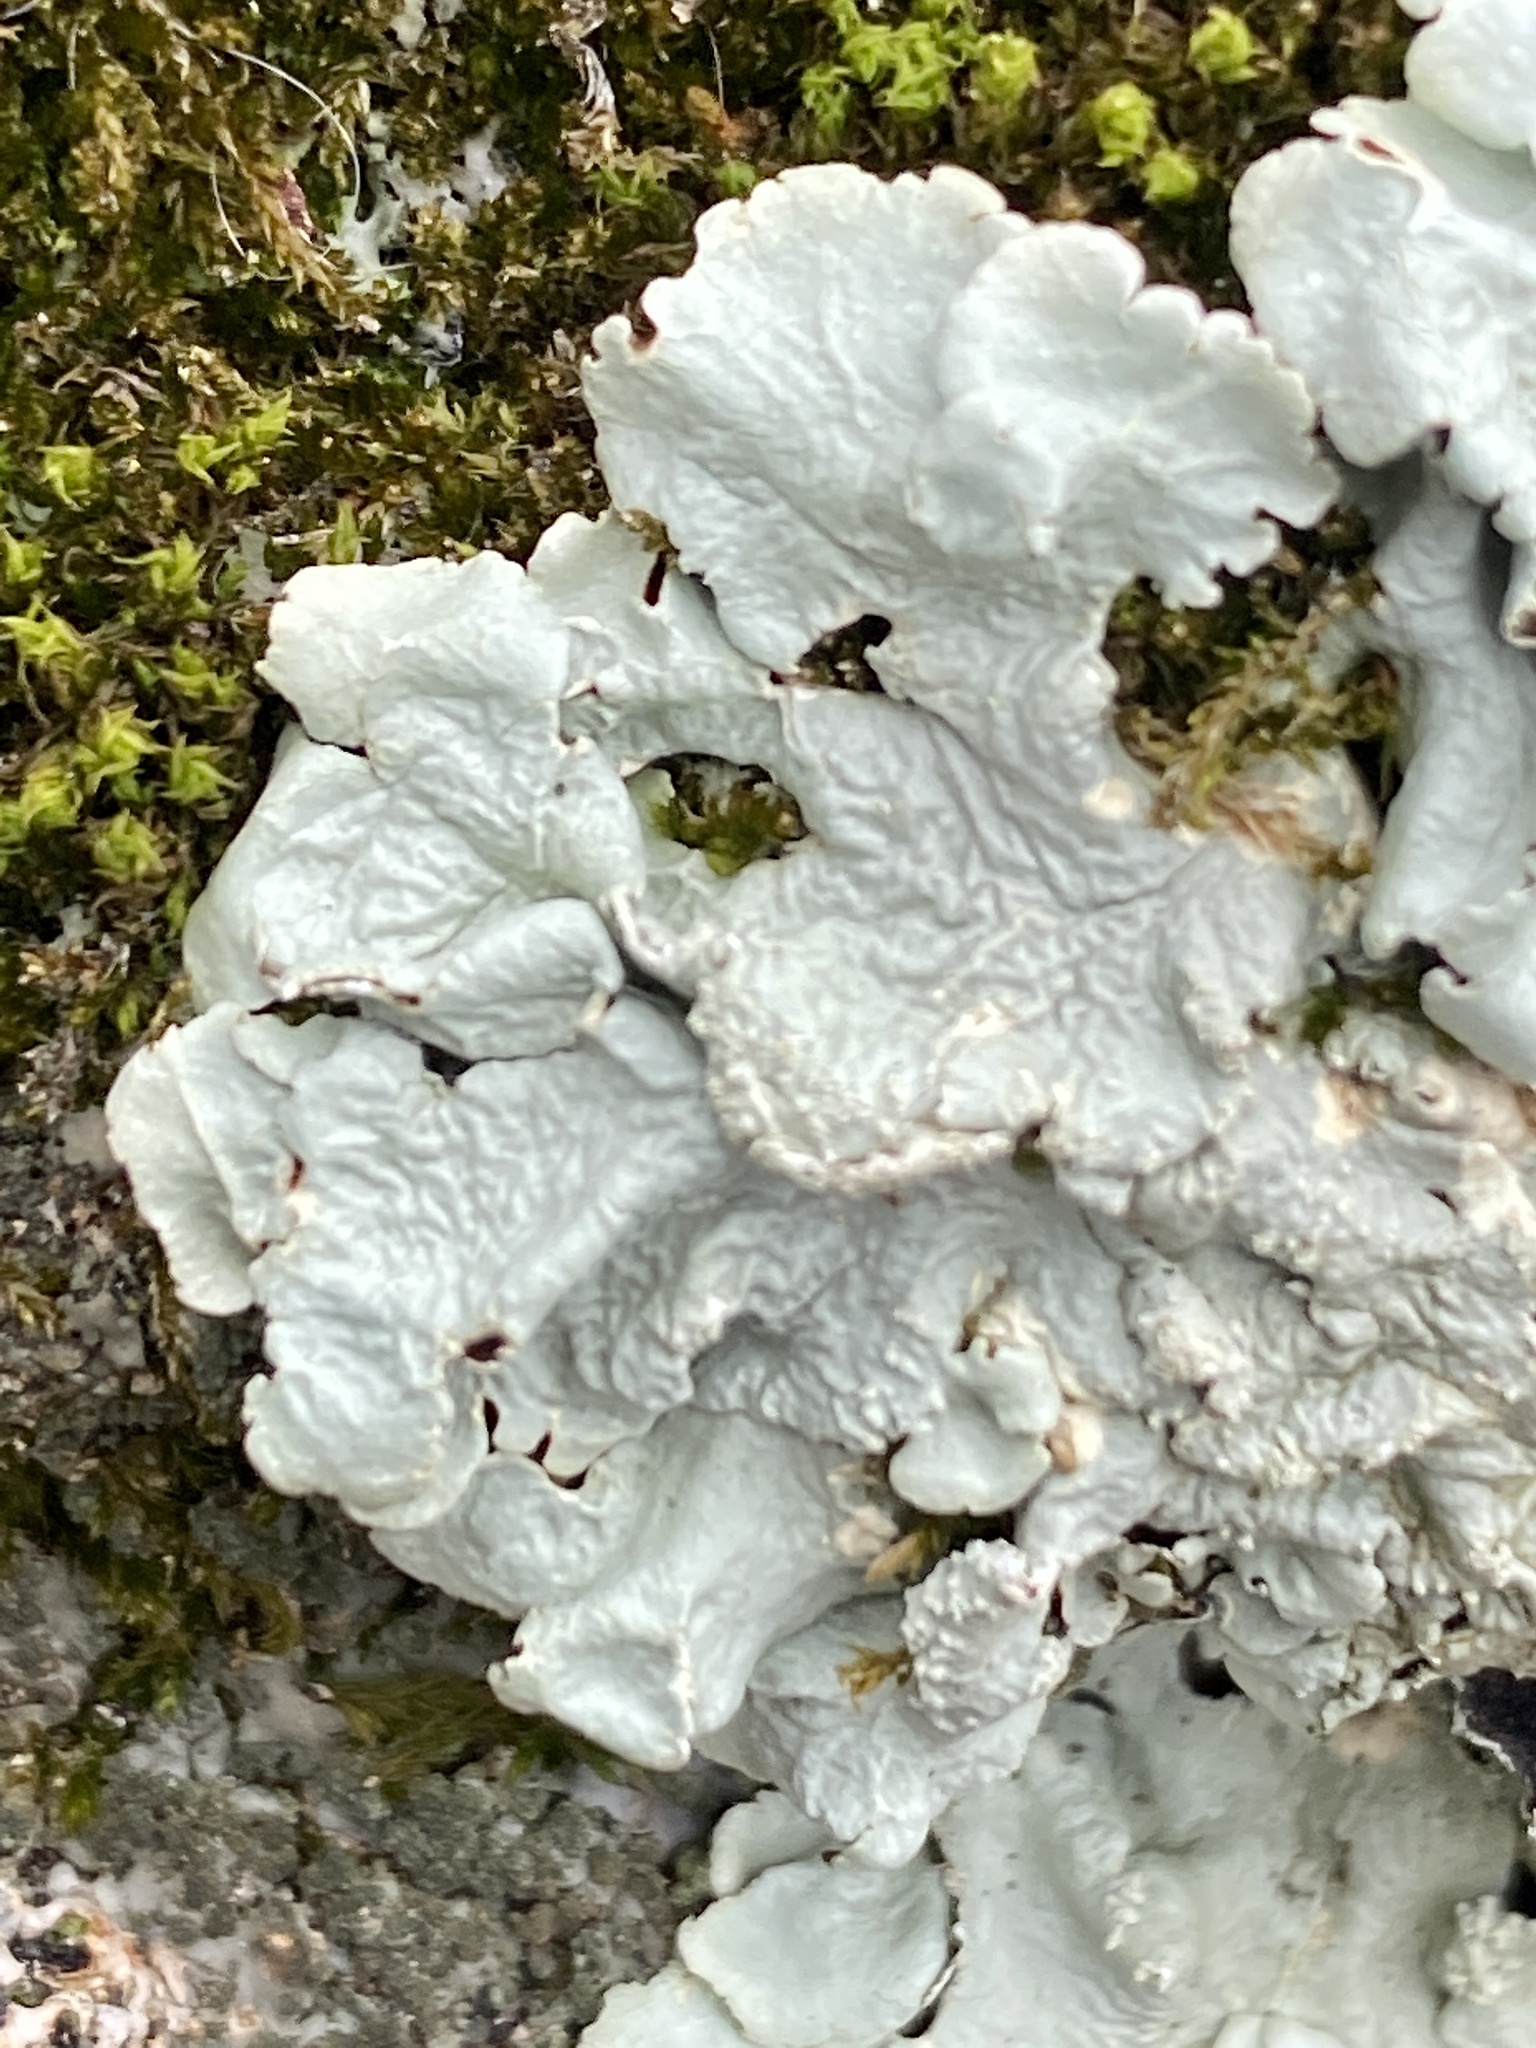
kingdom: Fungi
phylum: Ascomycota
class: Lecanoromycetes
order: Lecanorales
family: Parmeliaceae
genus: Flavoparmelia
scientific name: Flavoparmelia caperata
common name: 40-mile per hour lichen
